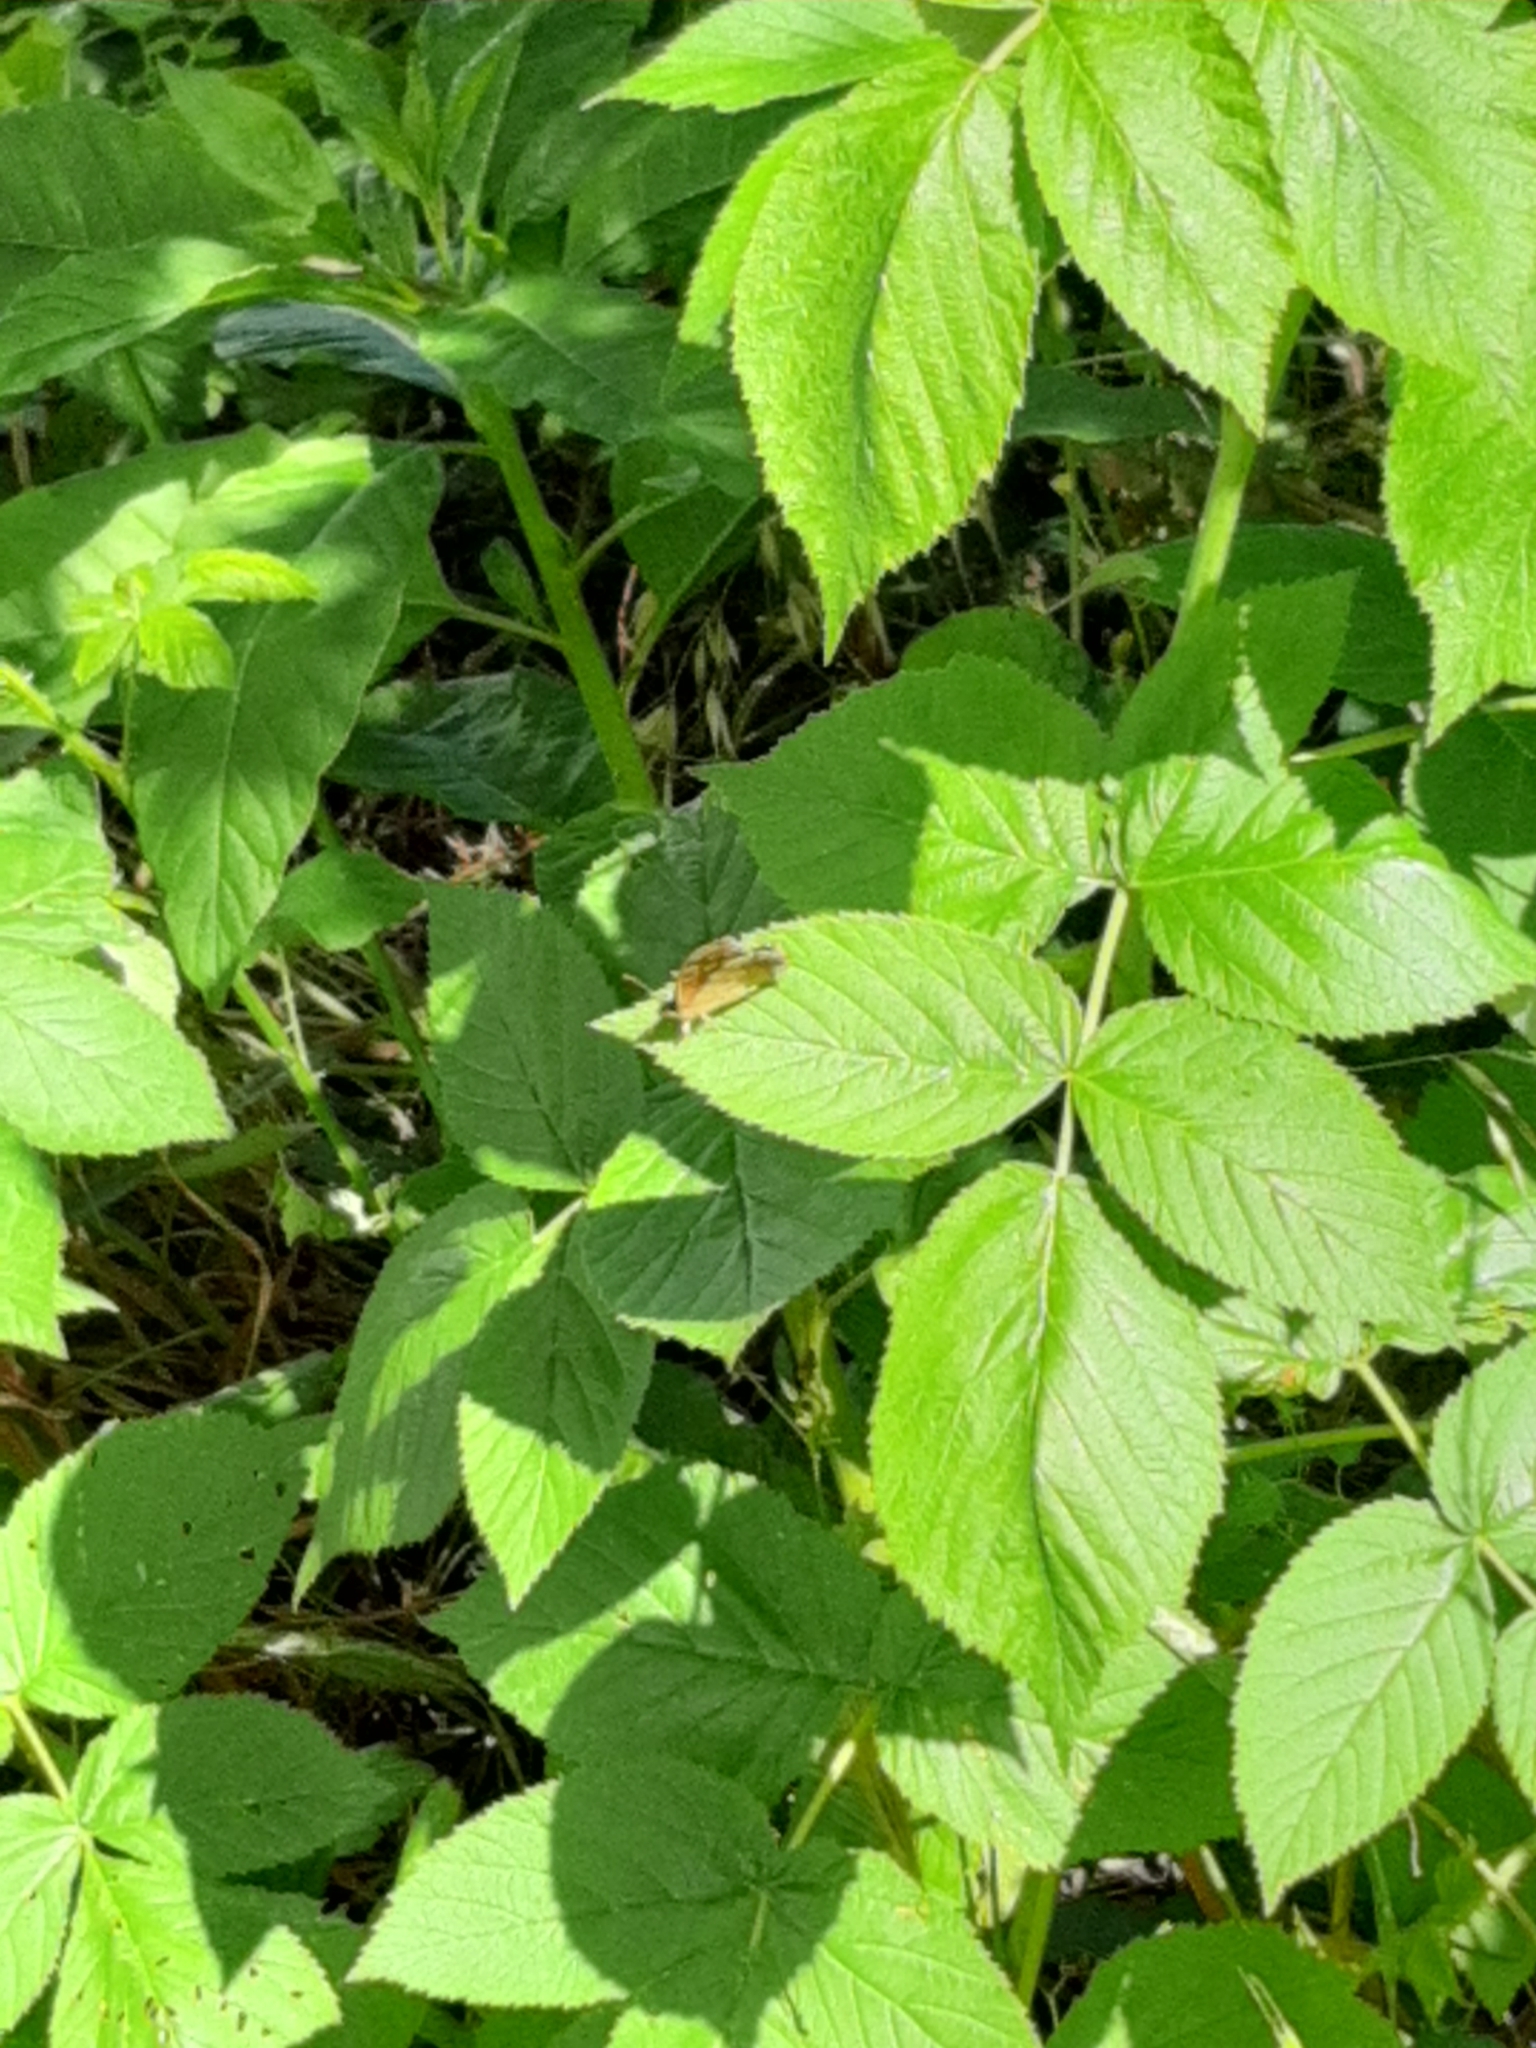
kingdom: Animalia
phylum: Arthropoda
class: Insecta
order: Lepidoptera
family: Nymphalidae
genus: Pararge
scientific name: Pararge aegeria
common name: Speckled wood
